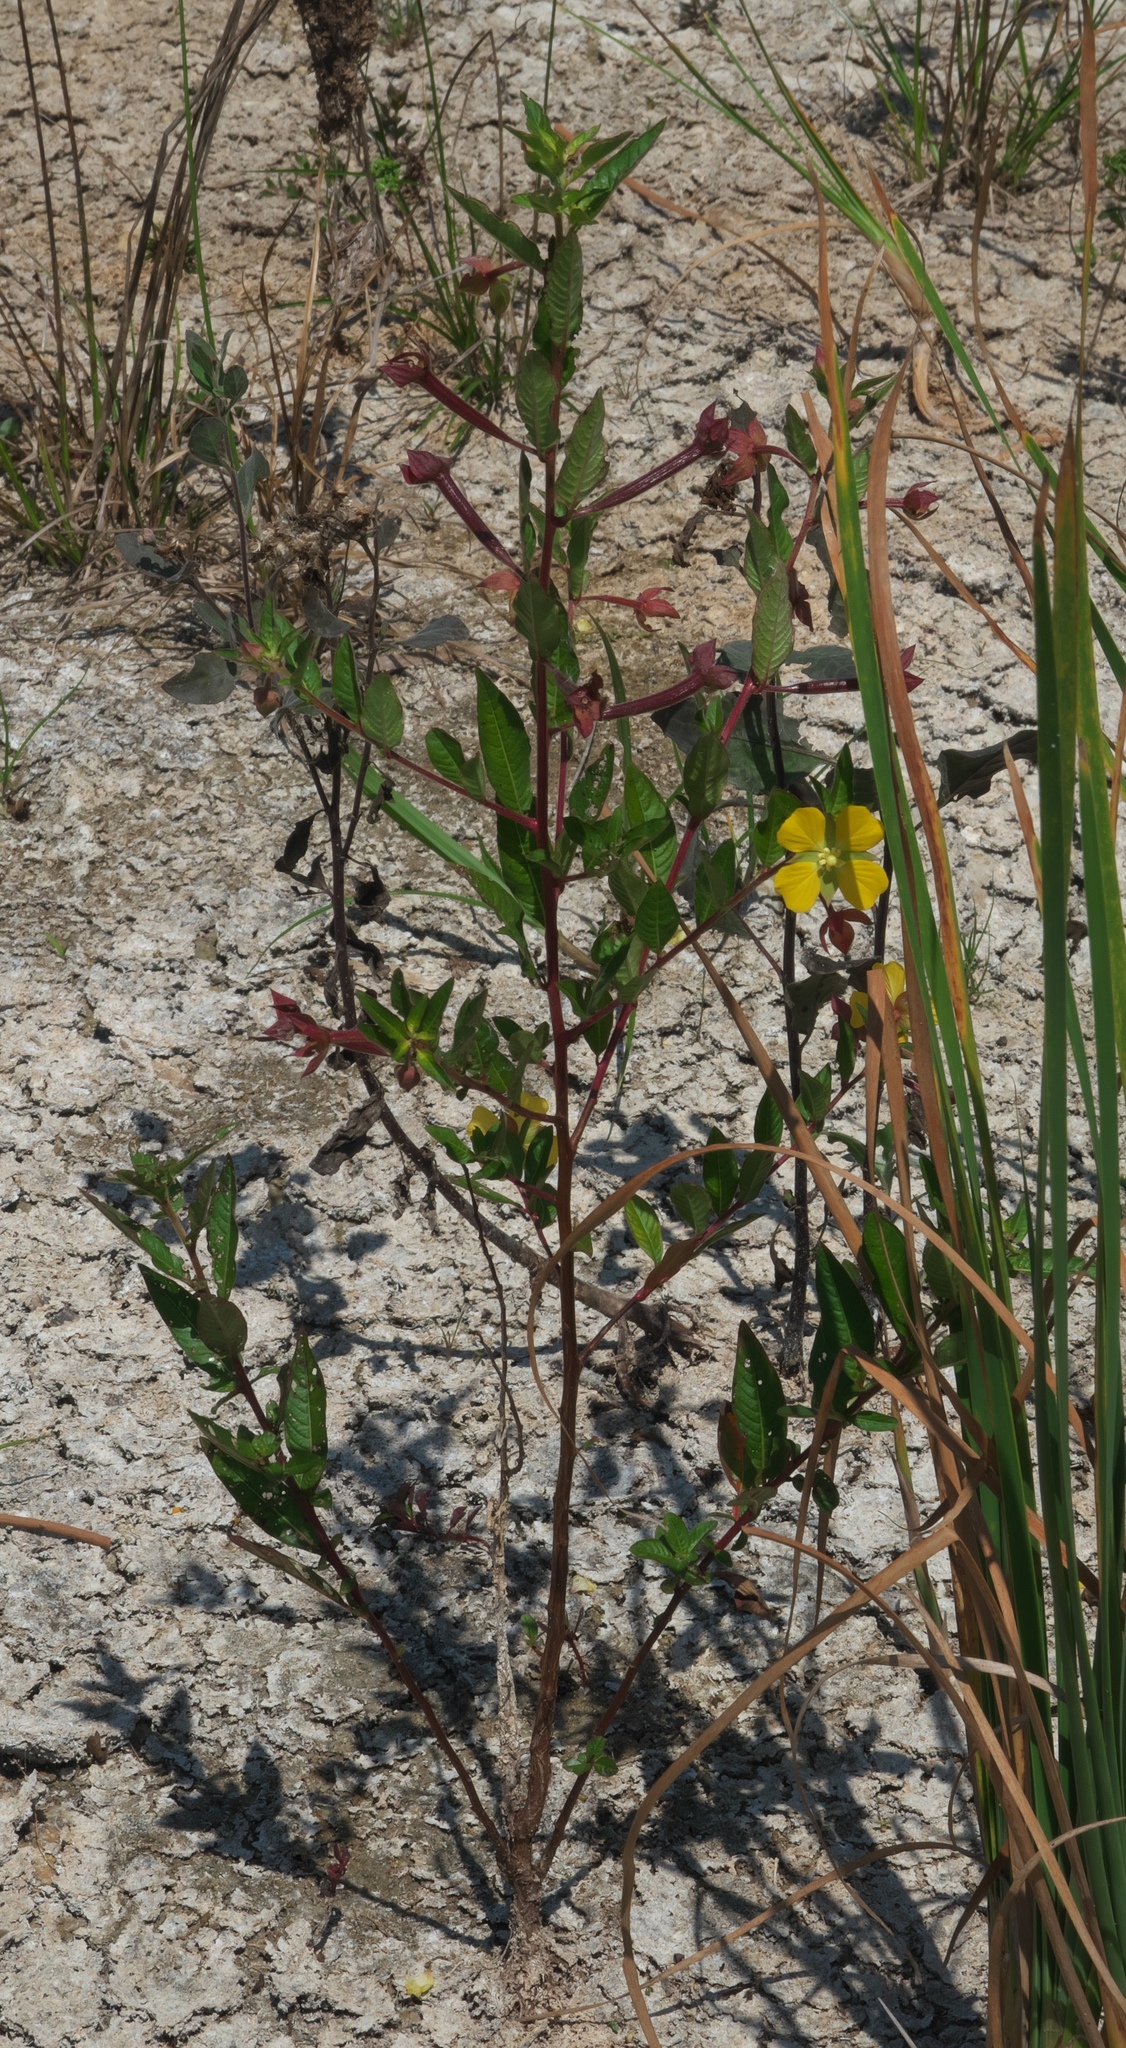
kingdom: Plantae
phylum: Tracheophyta
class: Magnoliopsida
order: Myrtales
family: Onagraceae
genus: Ludwigia
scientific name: Ludwigia octovalvis
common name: Water-primrose
